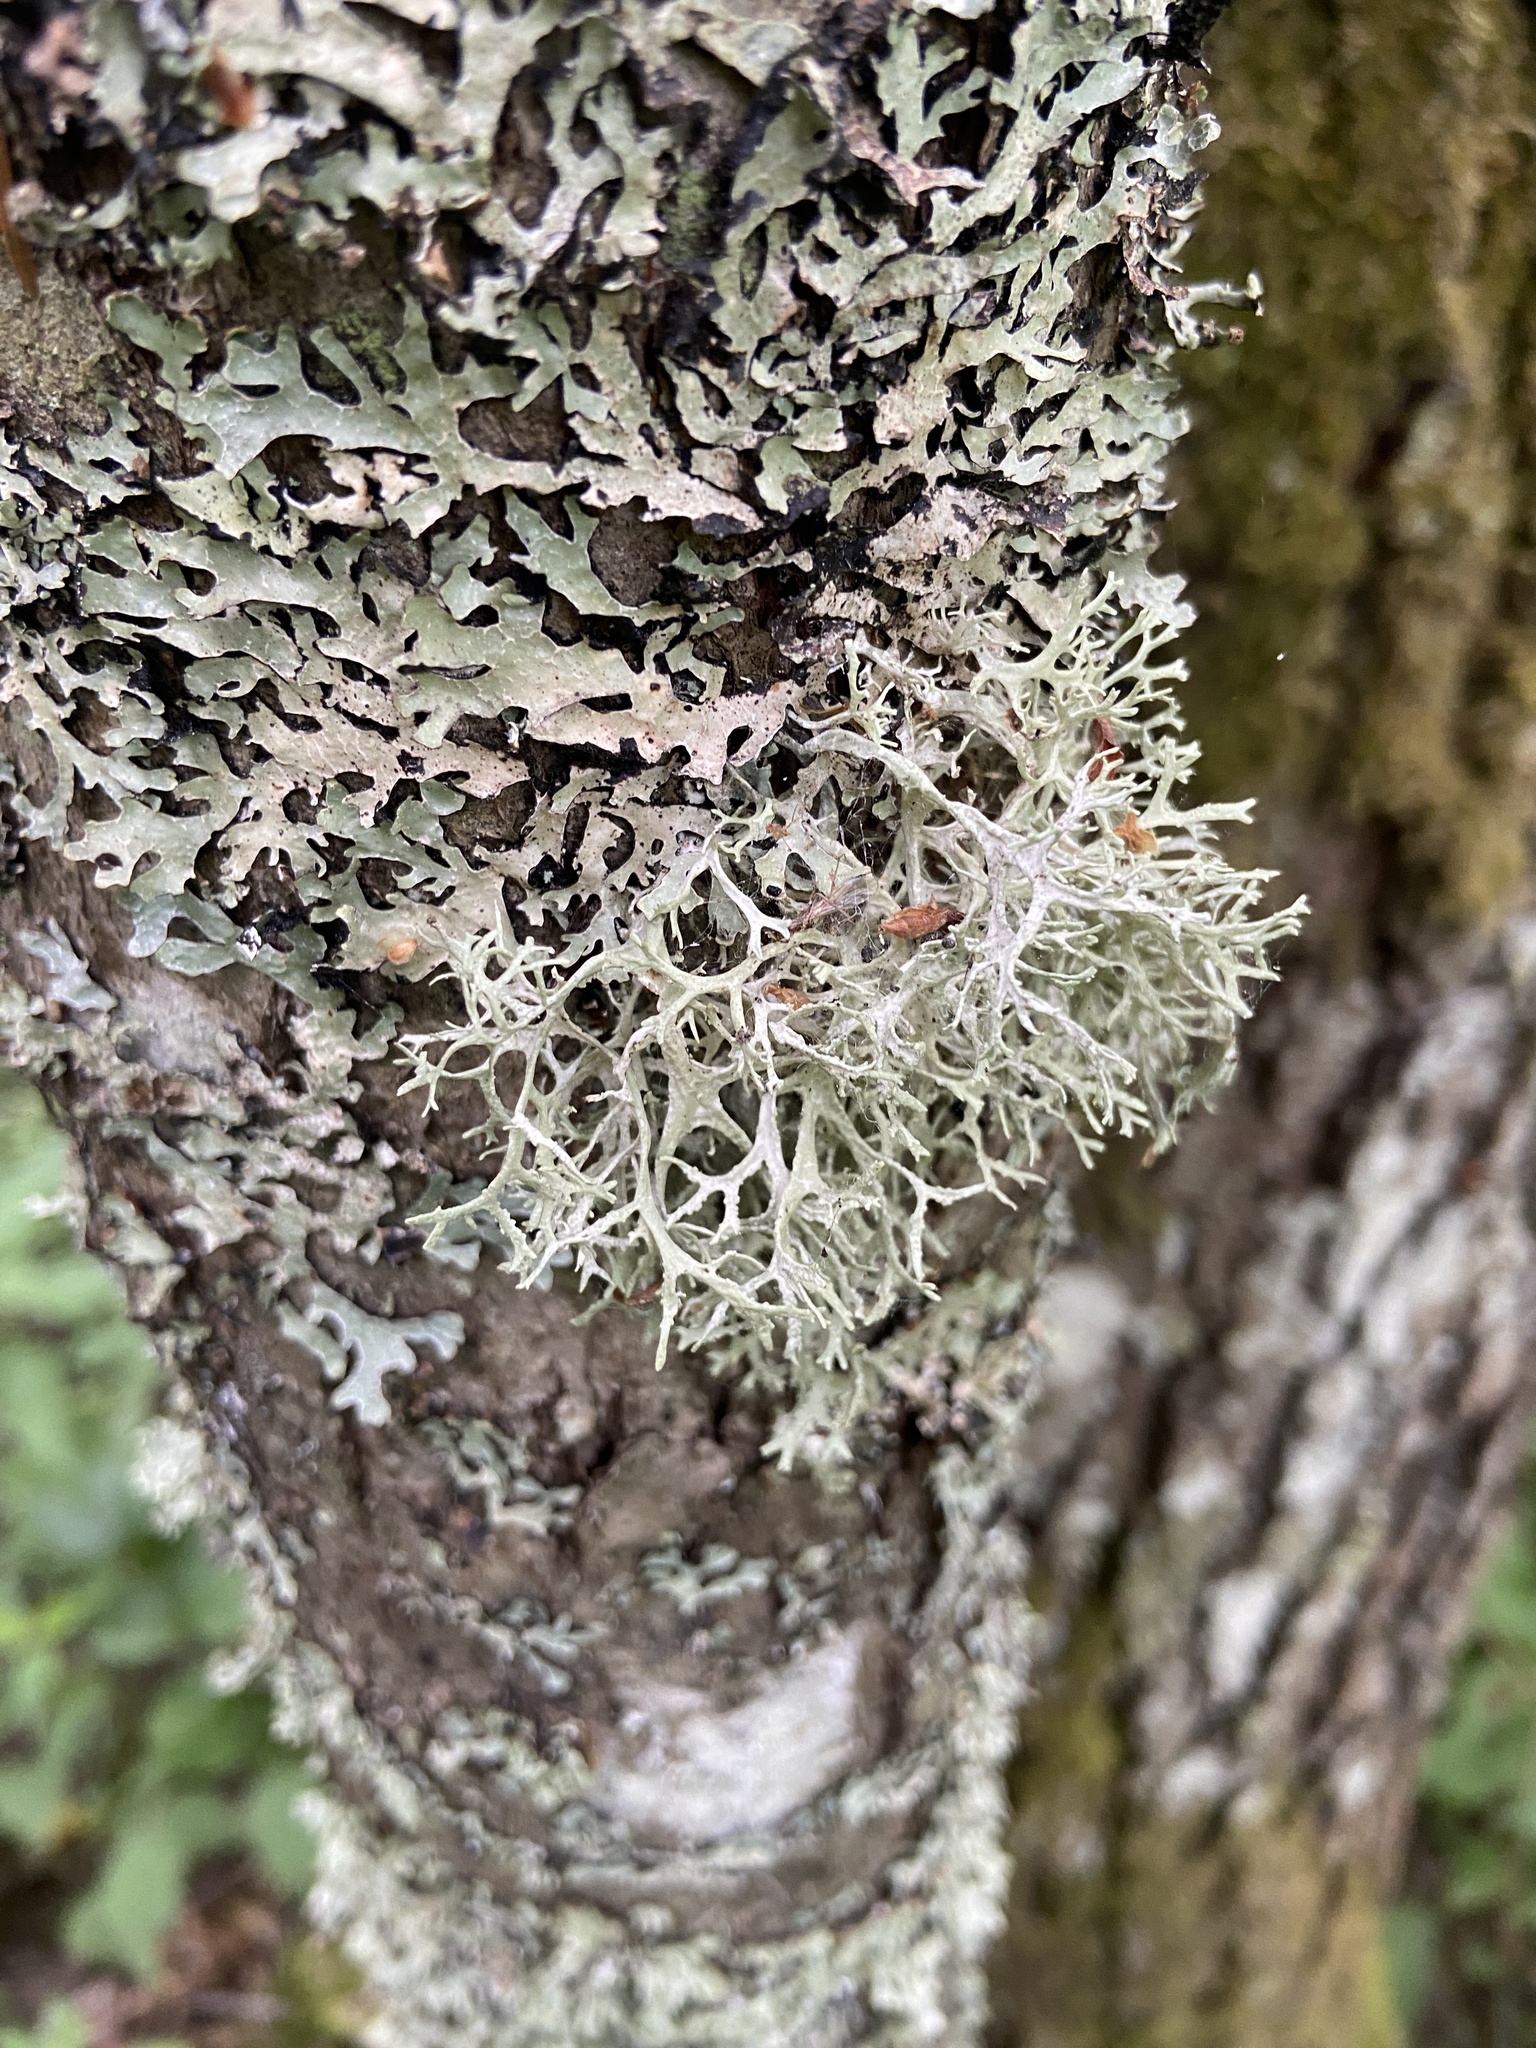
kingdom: Fungi
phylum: Ascomycota
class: Lecanoromycetes
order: Lecanorales
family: Parmeliaceae
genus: Evernia
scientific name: Evernia prunastri
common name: Oak moss
